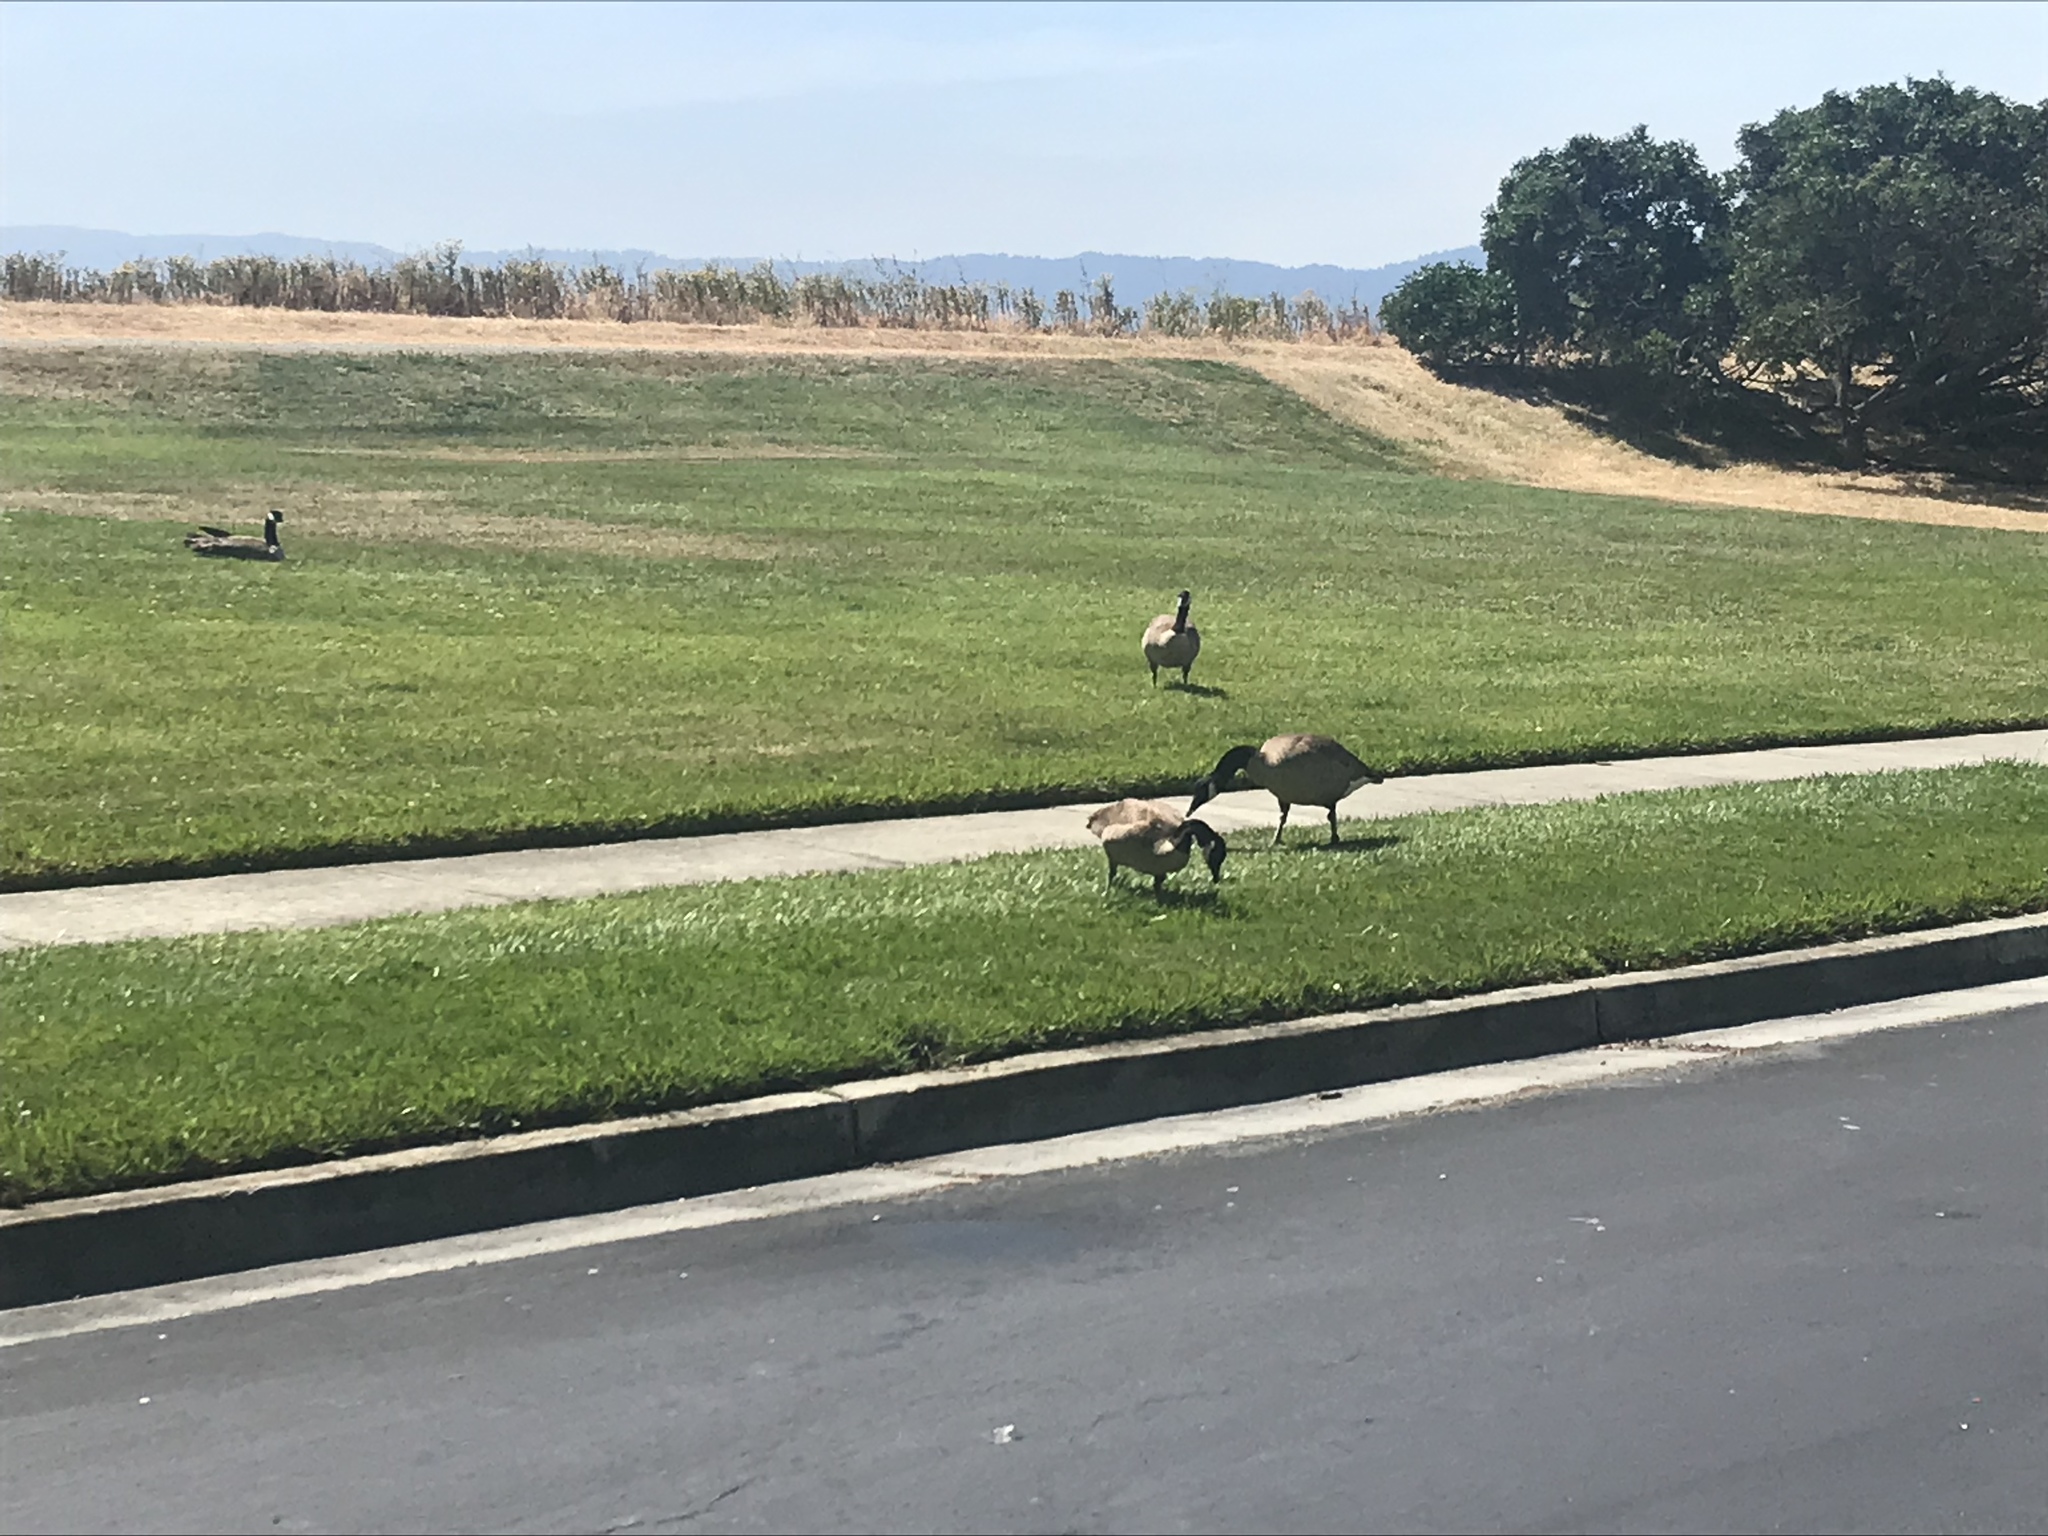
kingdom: Animalia
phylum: Chordata
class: Aves
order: Anseriformes
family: Anatidae
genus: Branta
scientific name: Branta canadensis
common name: Canada goose
